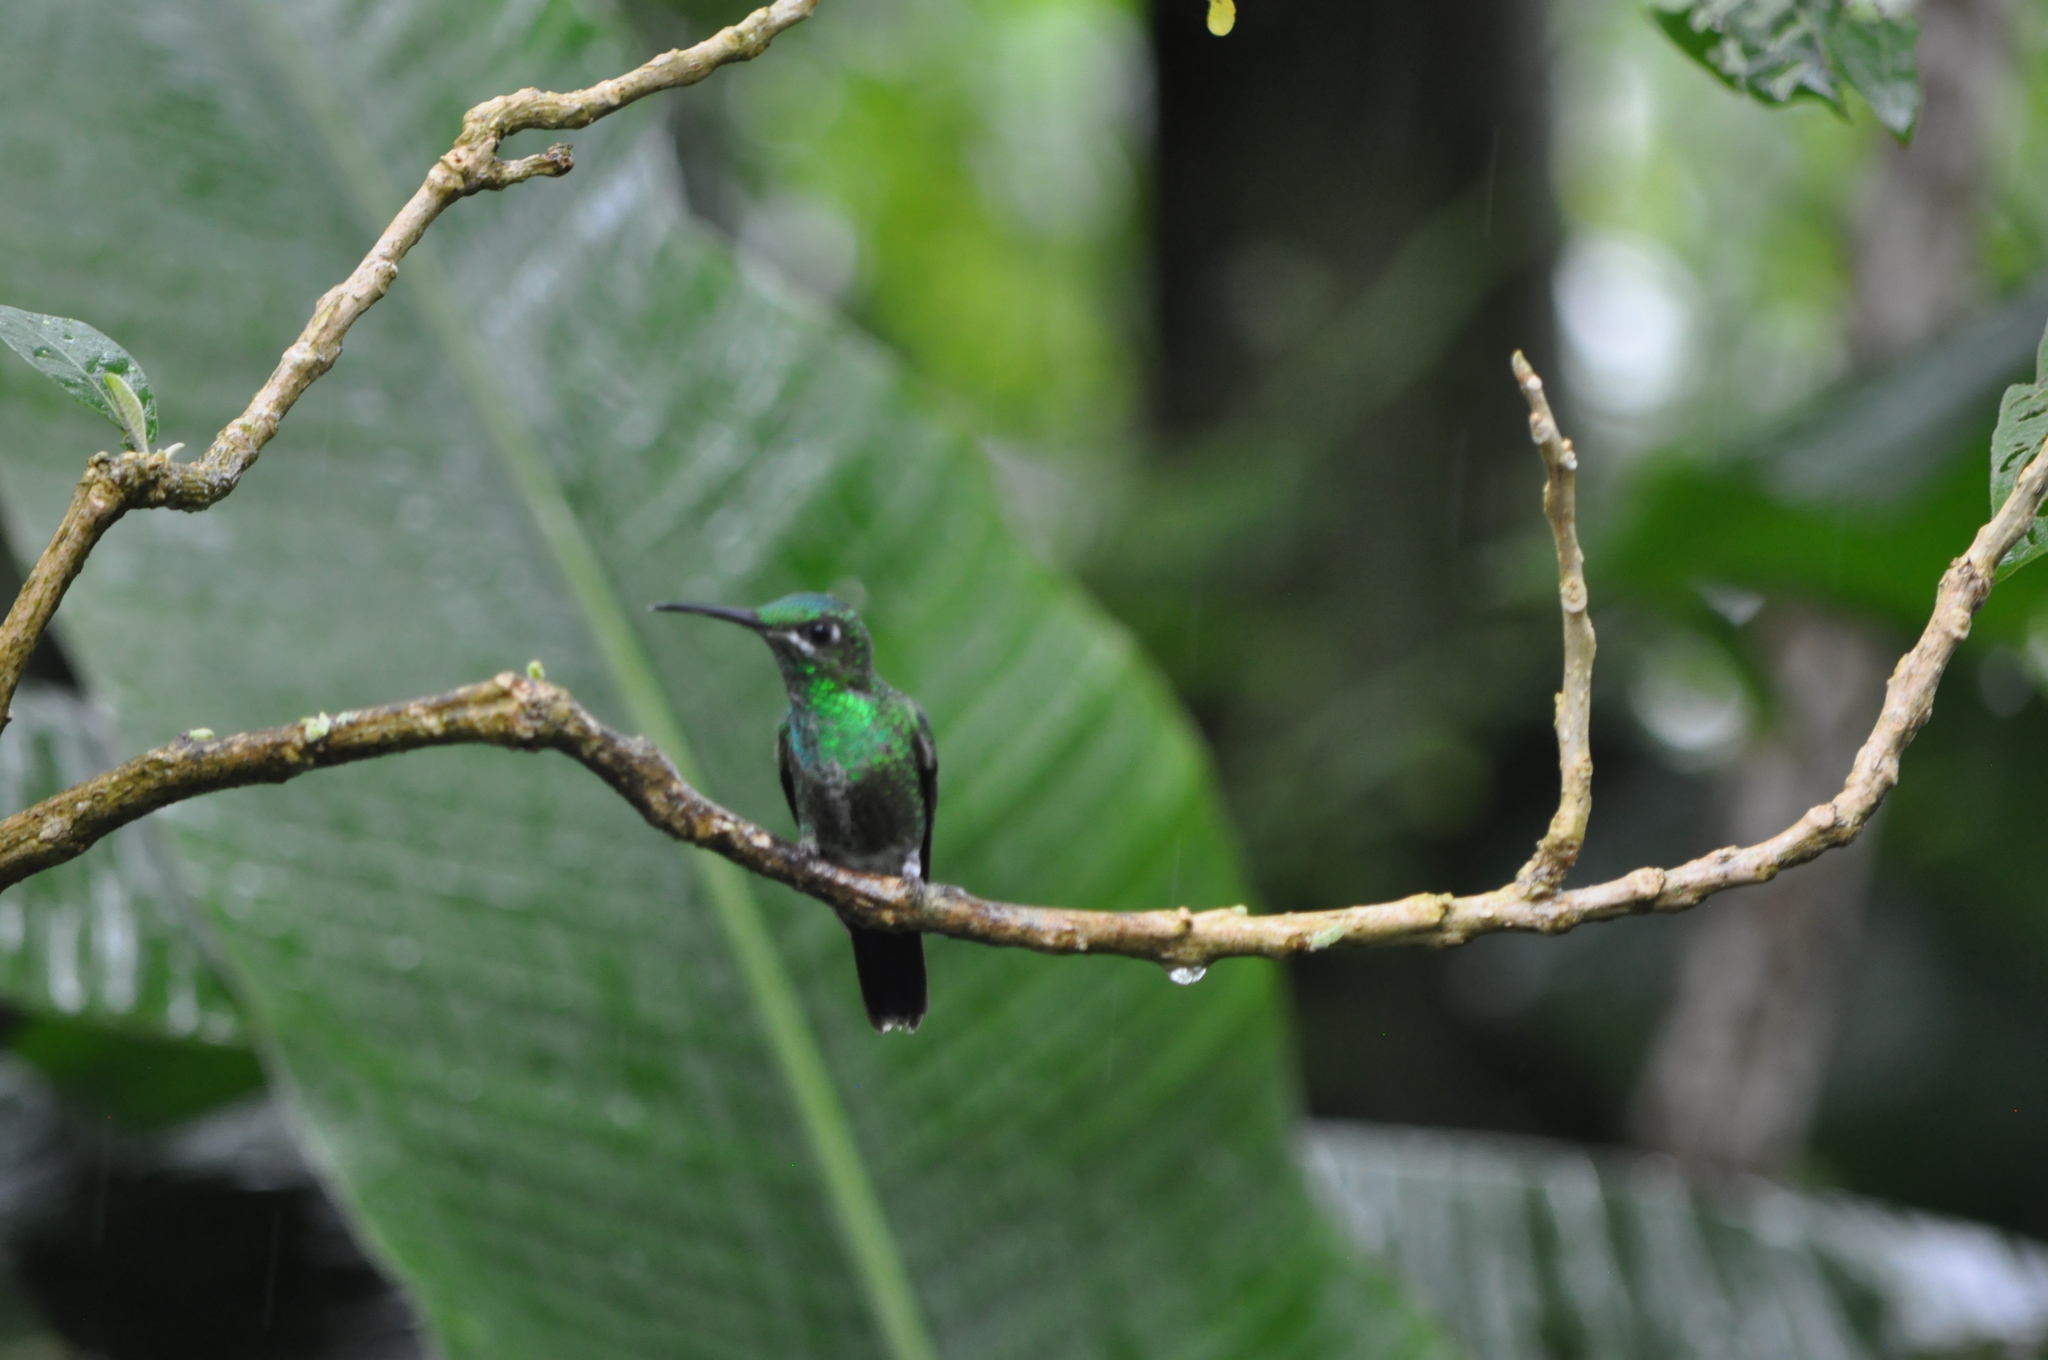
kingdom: Animalia
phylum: Chordata
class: Aves
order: Apodiformes
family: Trochilidae
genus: Heliodoxa
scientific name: Heliodoxa jacula
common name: Green-crowned brilliant
